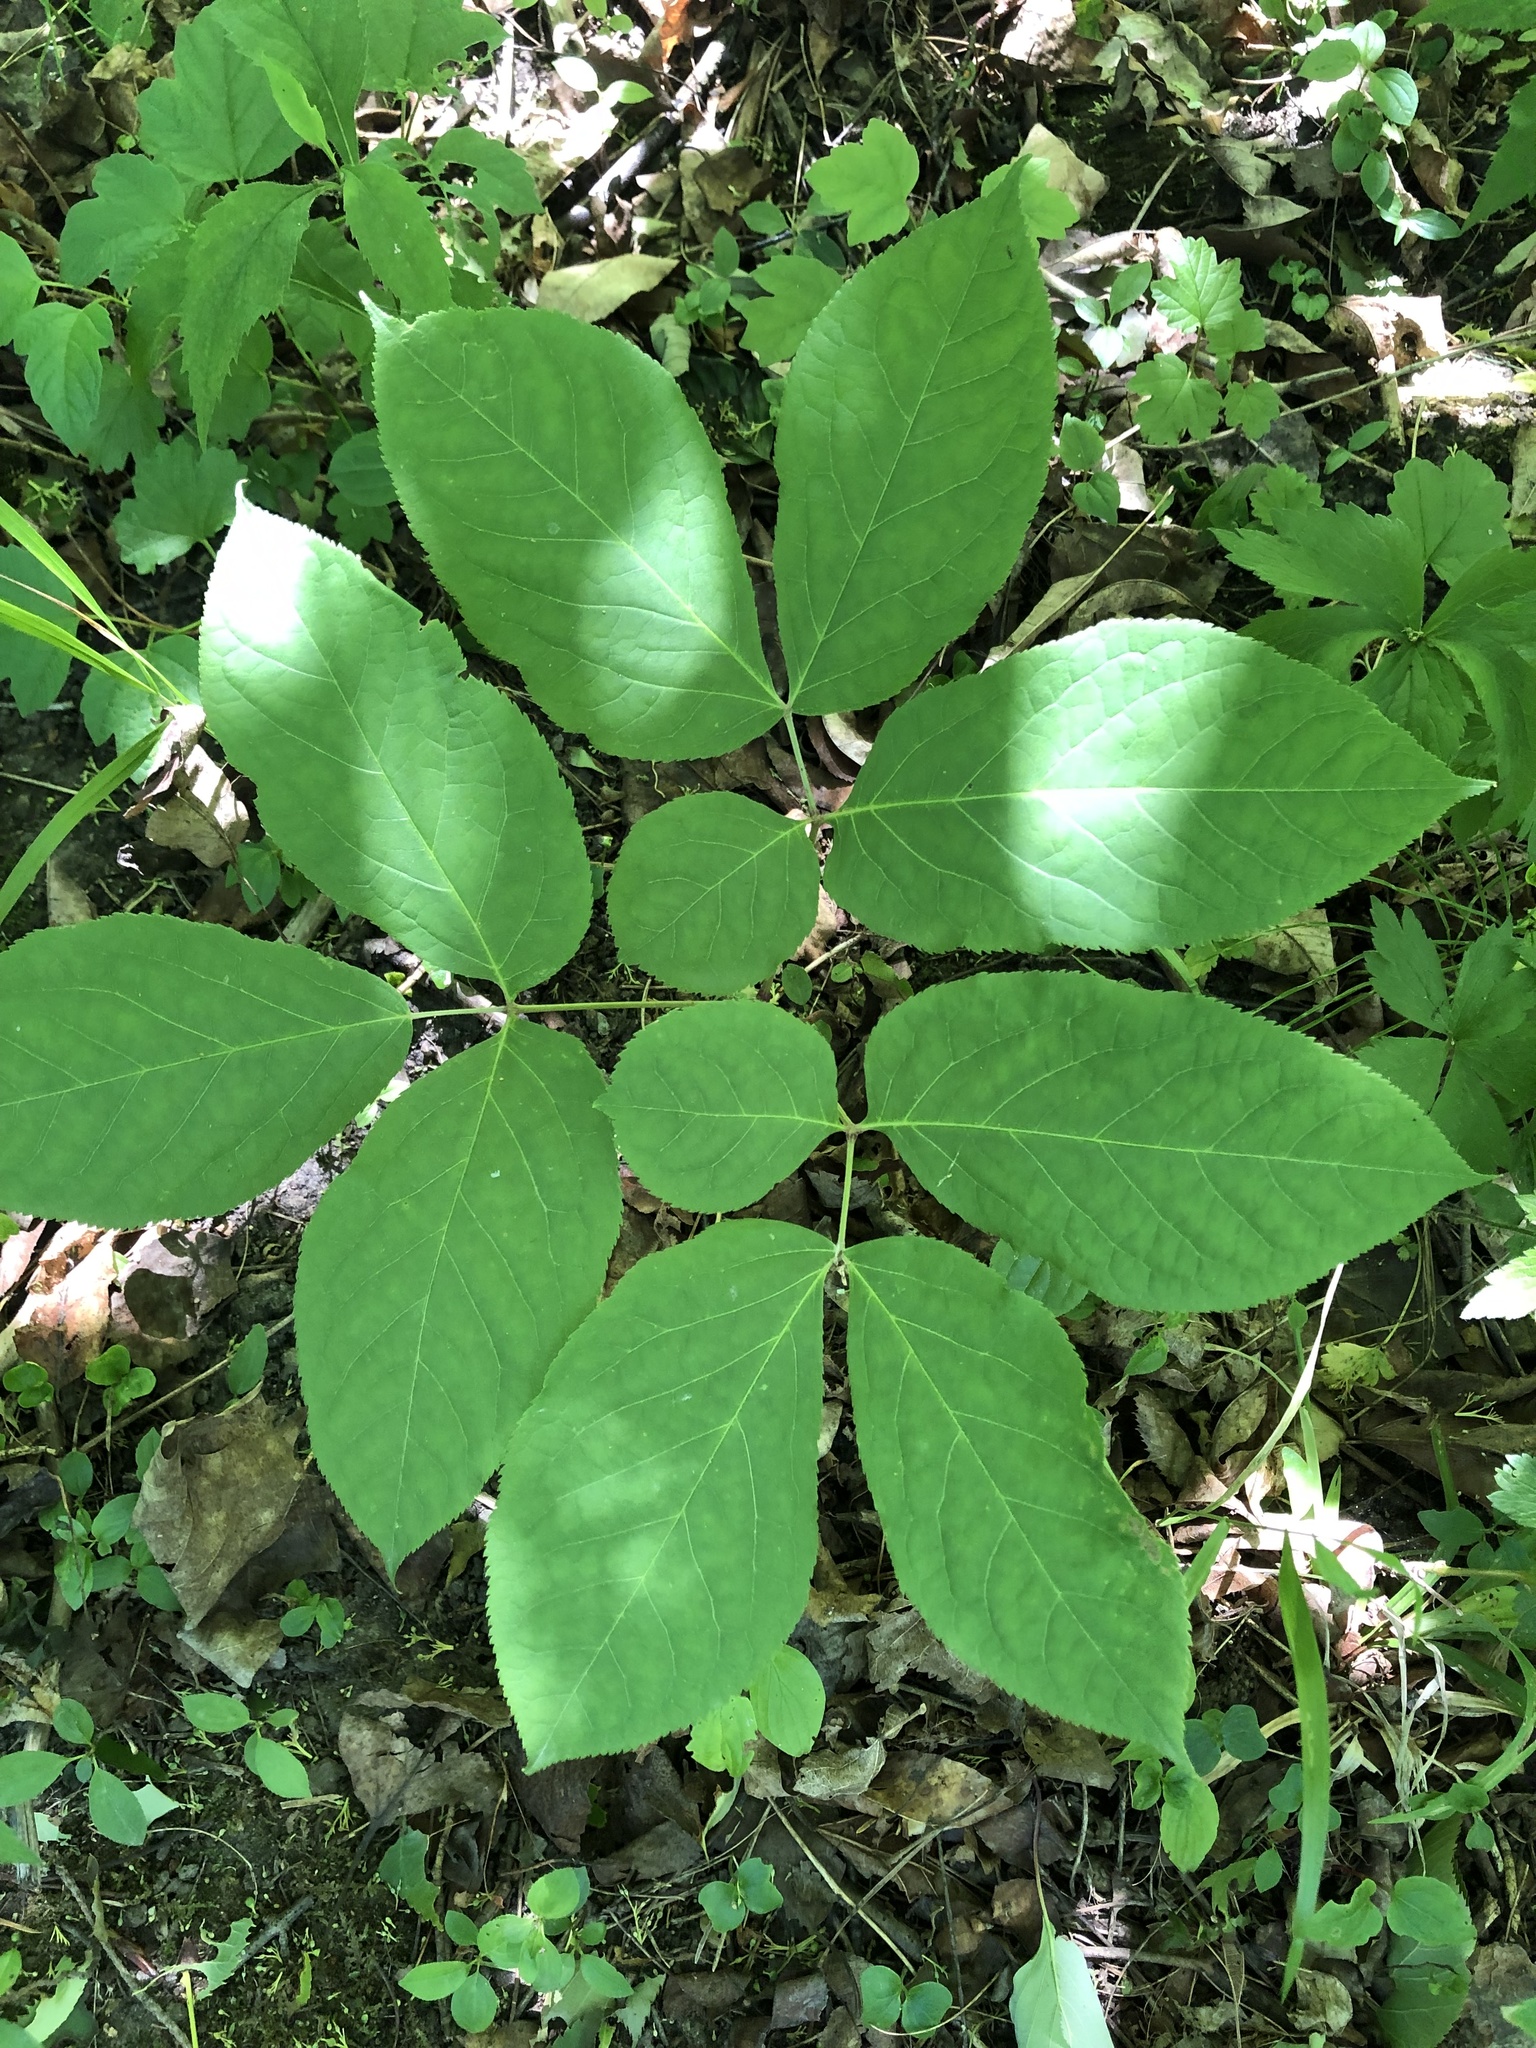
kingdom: Plantae
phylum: Tracheophyta
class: Magnoliopsida
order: Apiales
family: Araliaceae
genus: Aralia
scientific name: Aralia nudicaulis
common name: Wild sarsaparilla
